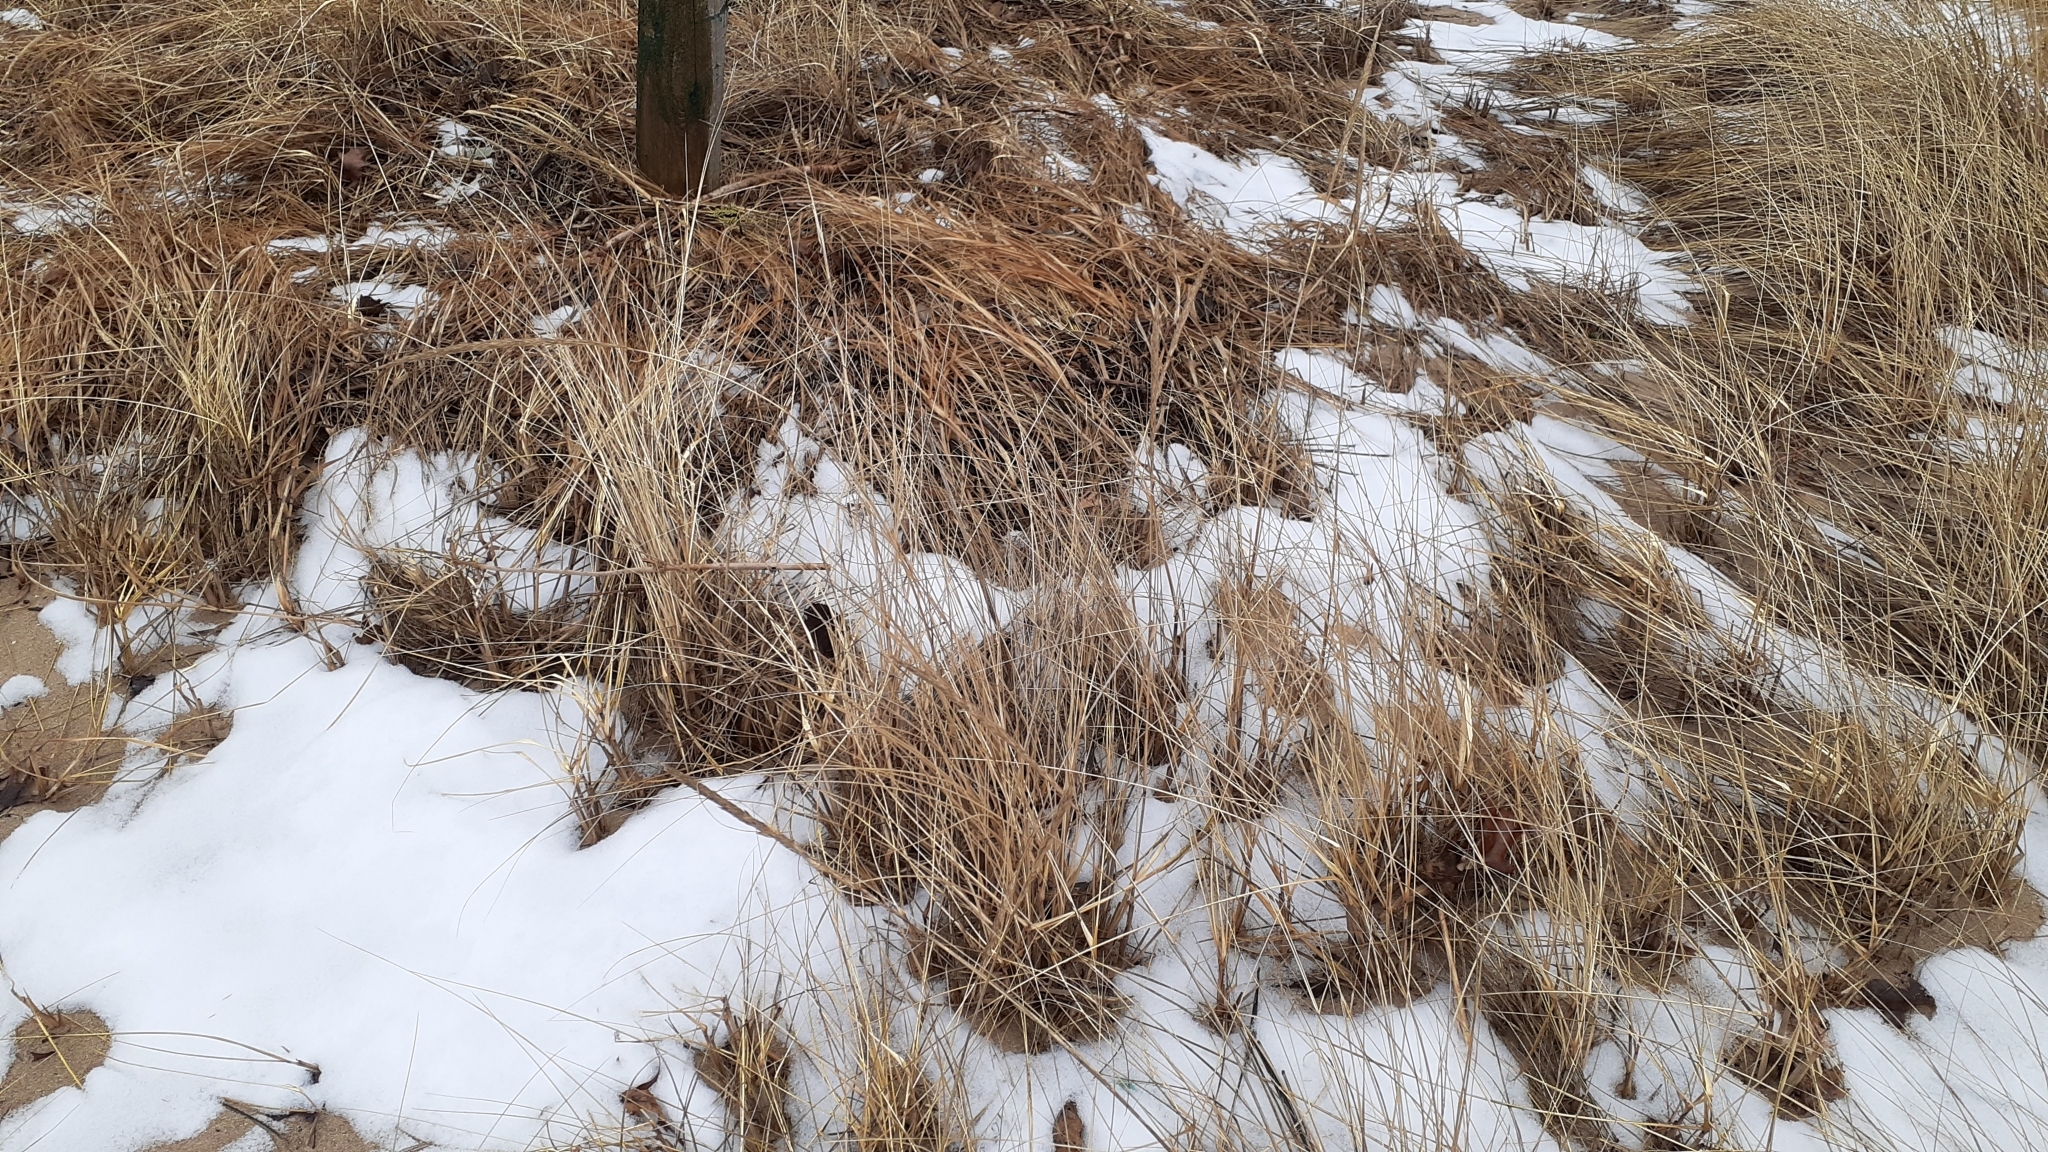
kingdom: Plantae
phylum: Tracheophyta
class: Liliopsida
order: Poales
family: Poaceae
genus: Calamagrostis
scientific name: Calamagrostis breviligulata
